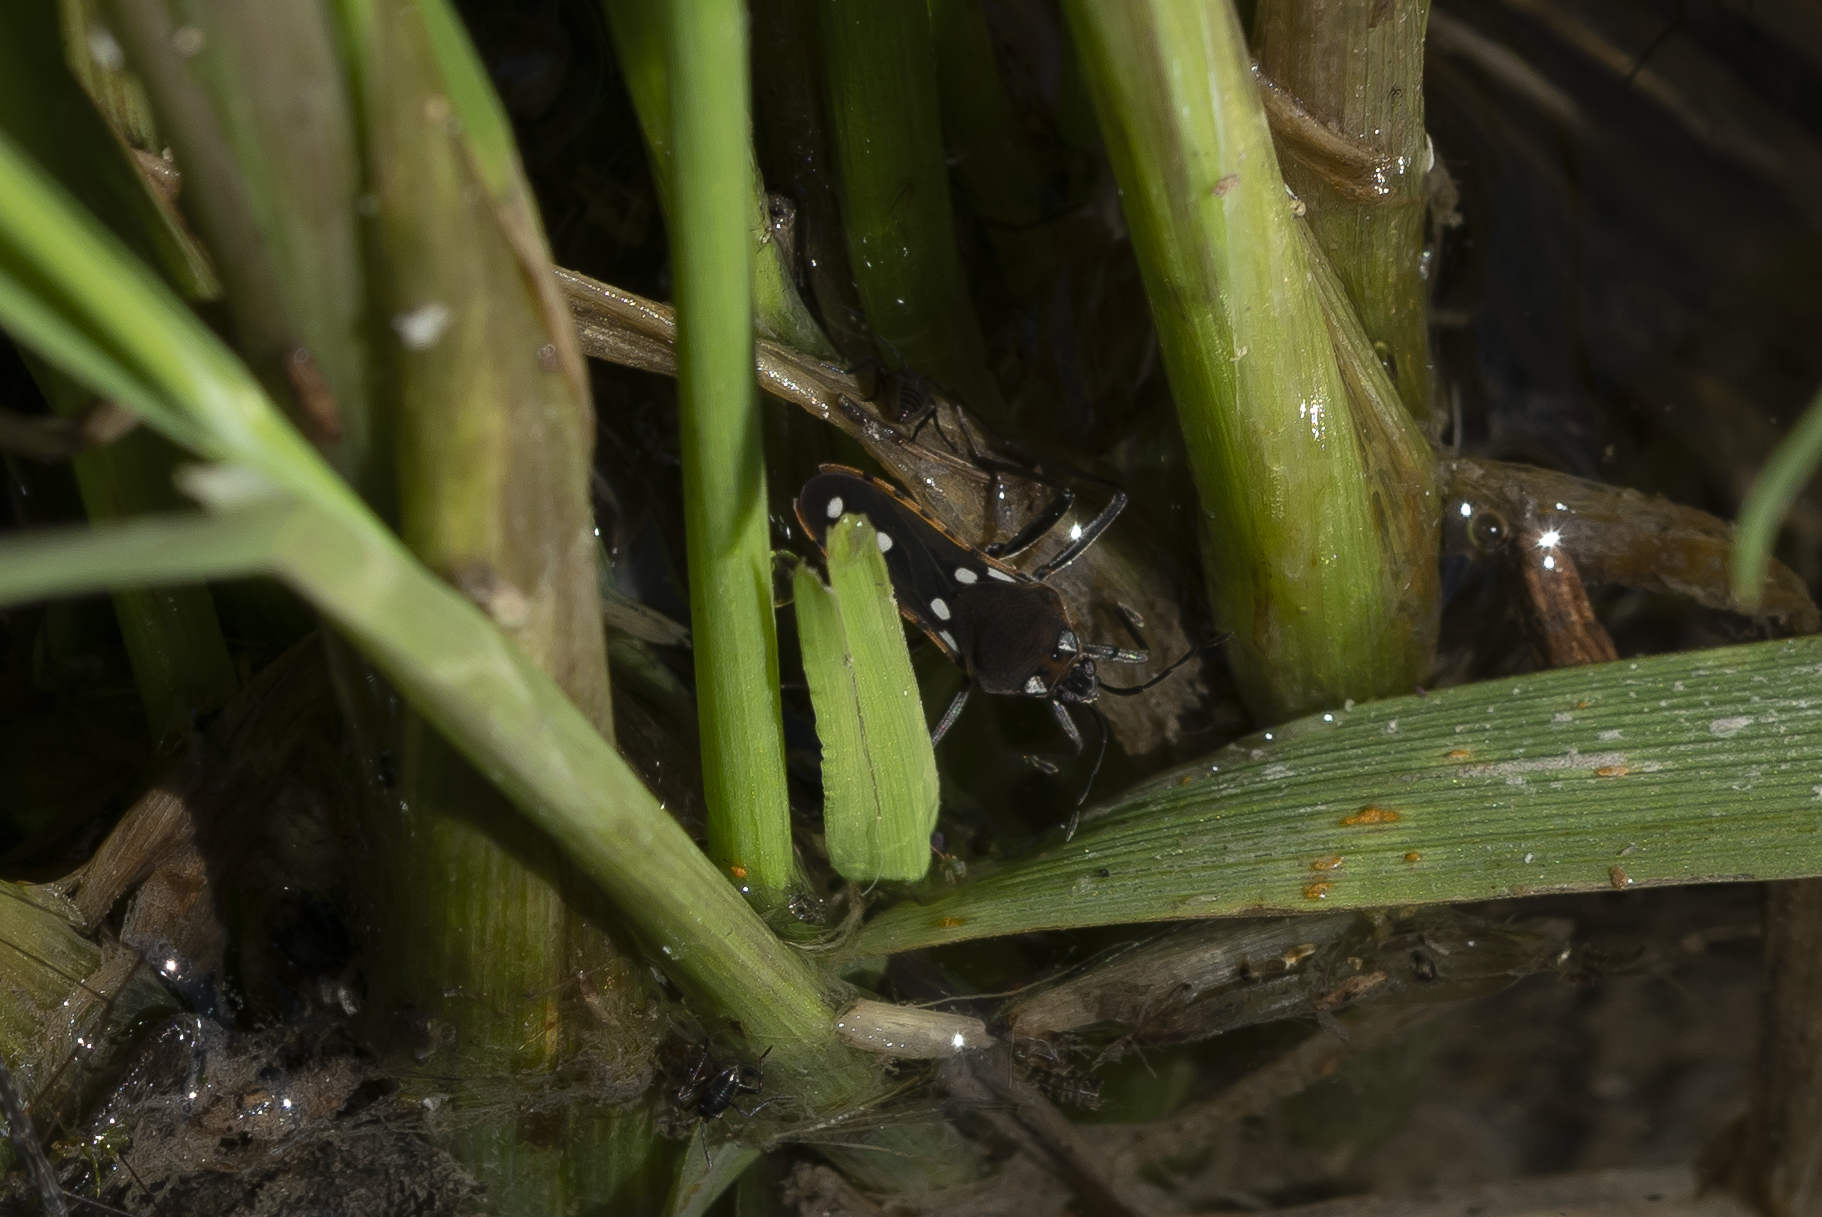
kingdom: Animalia
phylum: Arthropoda
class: Insecta
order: Hemiptera
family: Veliidae
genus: Velia
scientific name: Velia affinis
